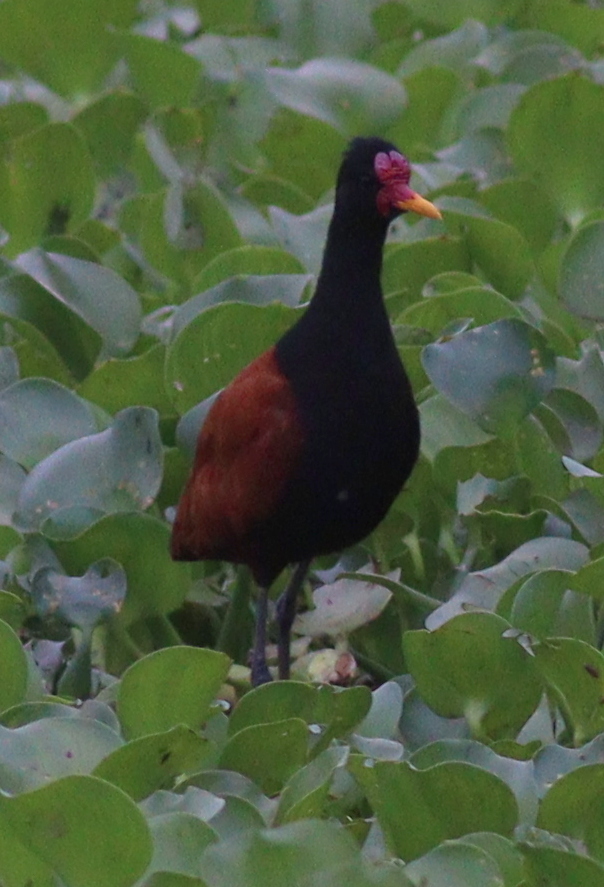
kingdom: Animalia
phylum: Chordata
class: Aves
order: Charadriiformes
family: Jacanidae
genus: Jacana
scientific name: Jacana jacana
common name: Wattled jacana
